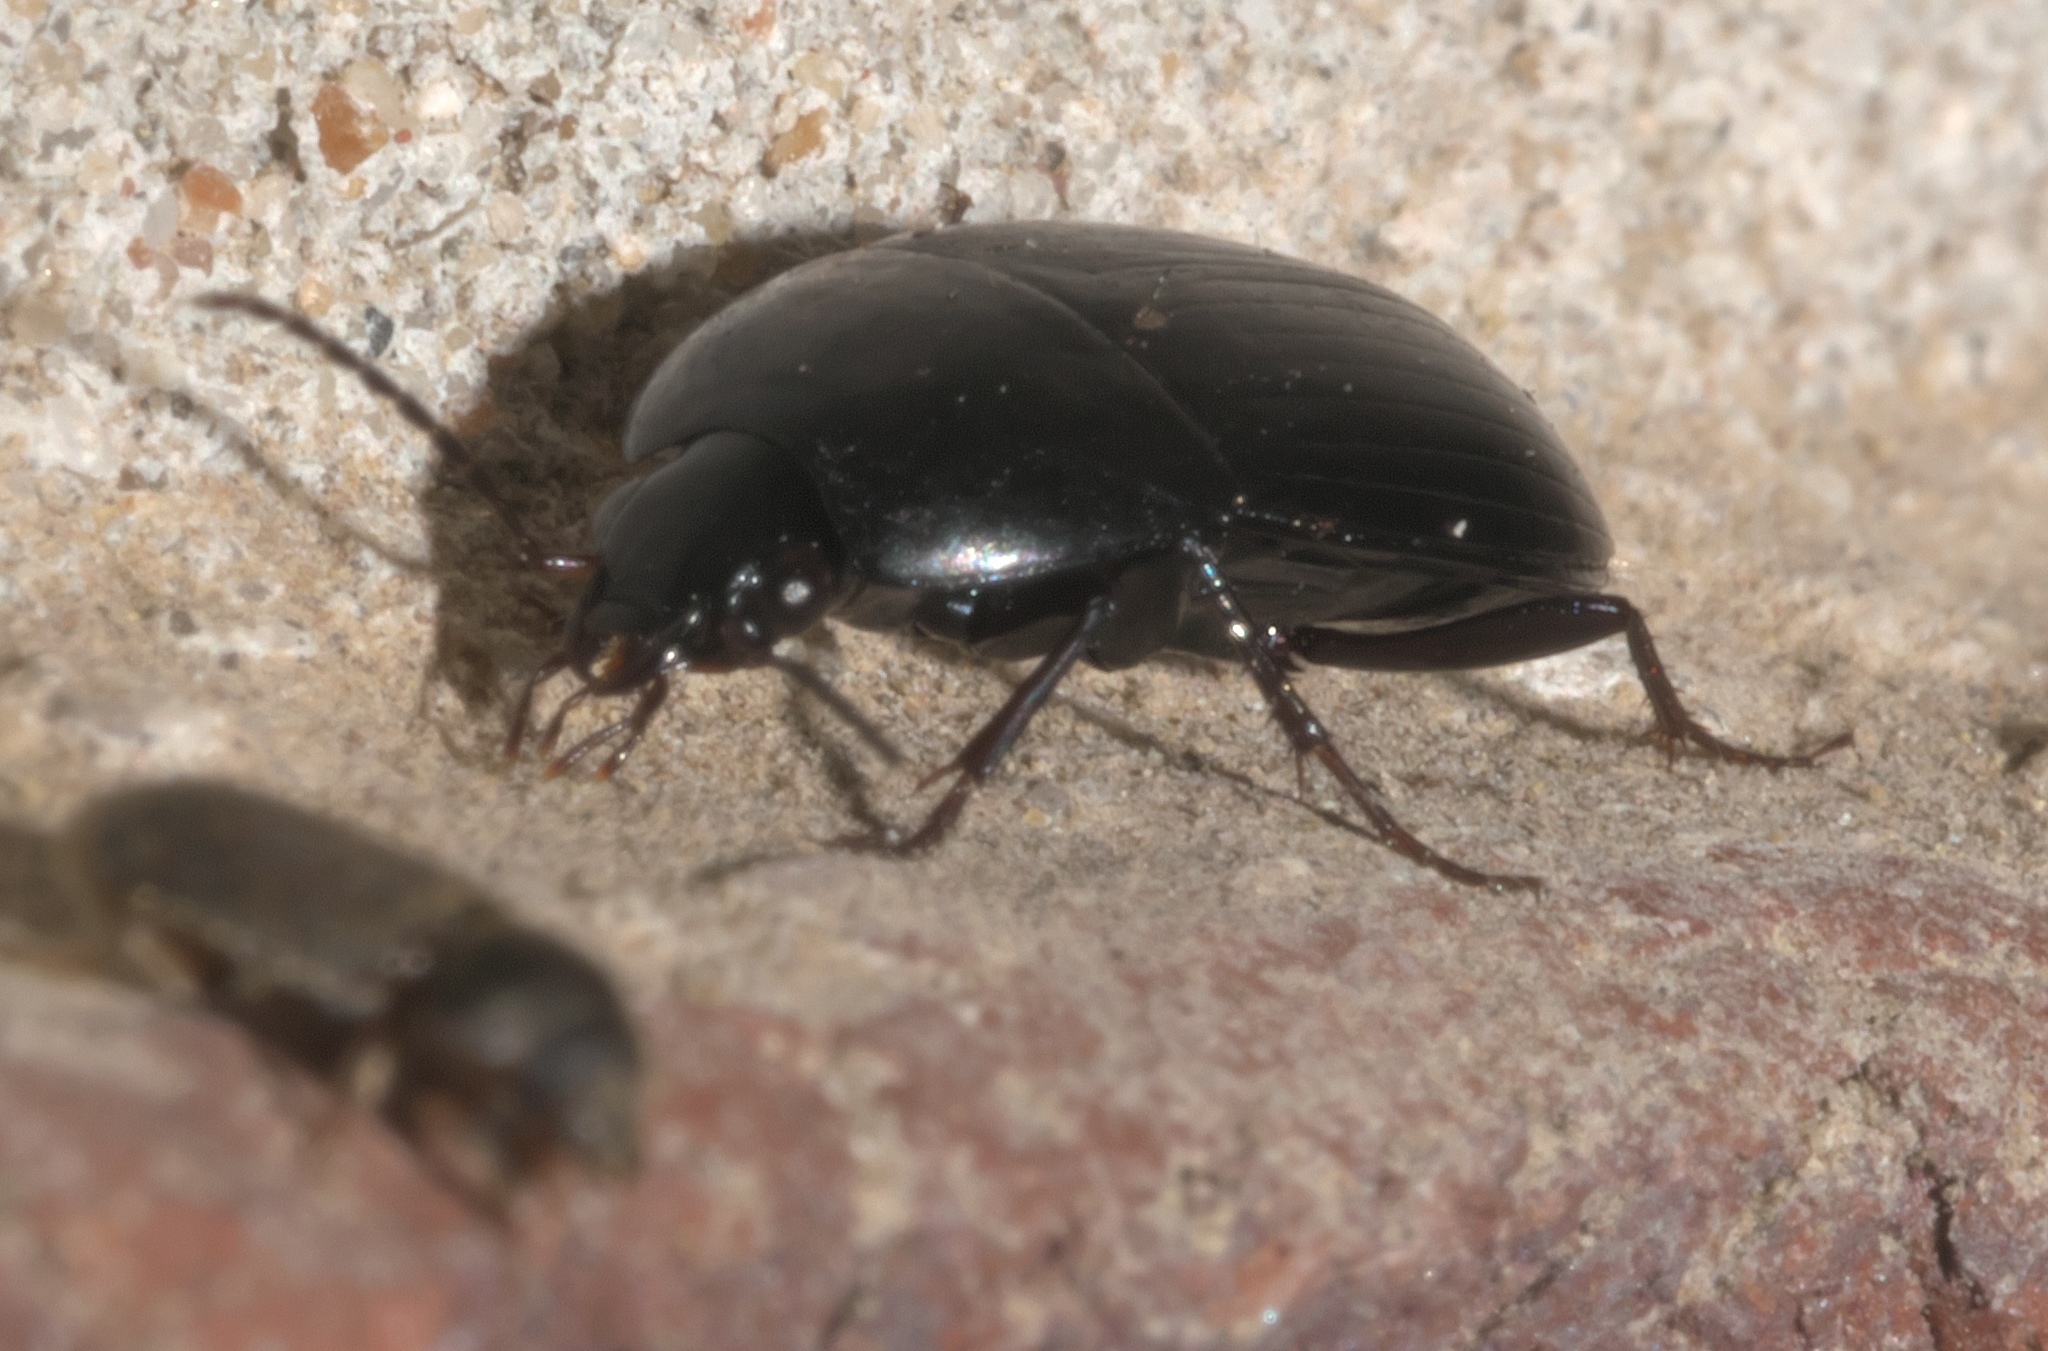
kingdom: Animalia
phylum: Arthropoda
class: Insecta
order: Coleoptera
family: Carabidae
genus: Oodes
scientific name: Oodes amaroides
